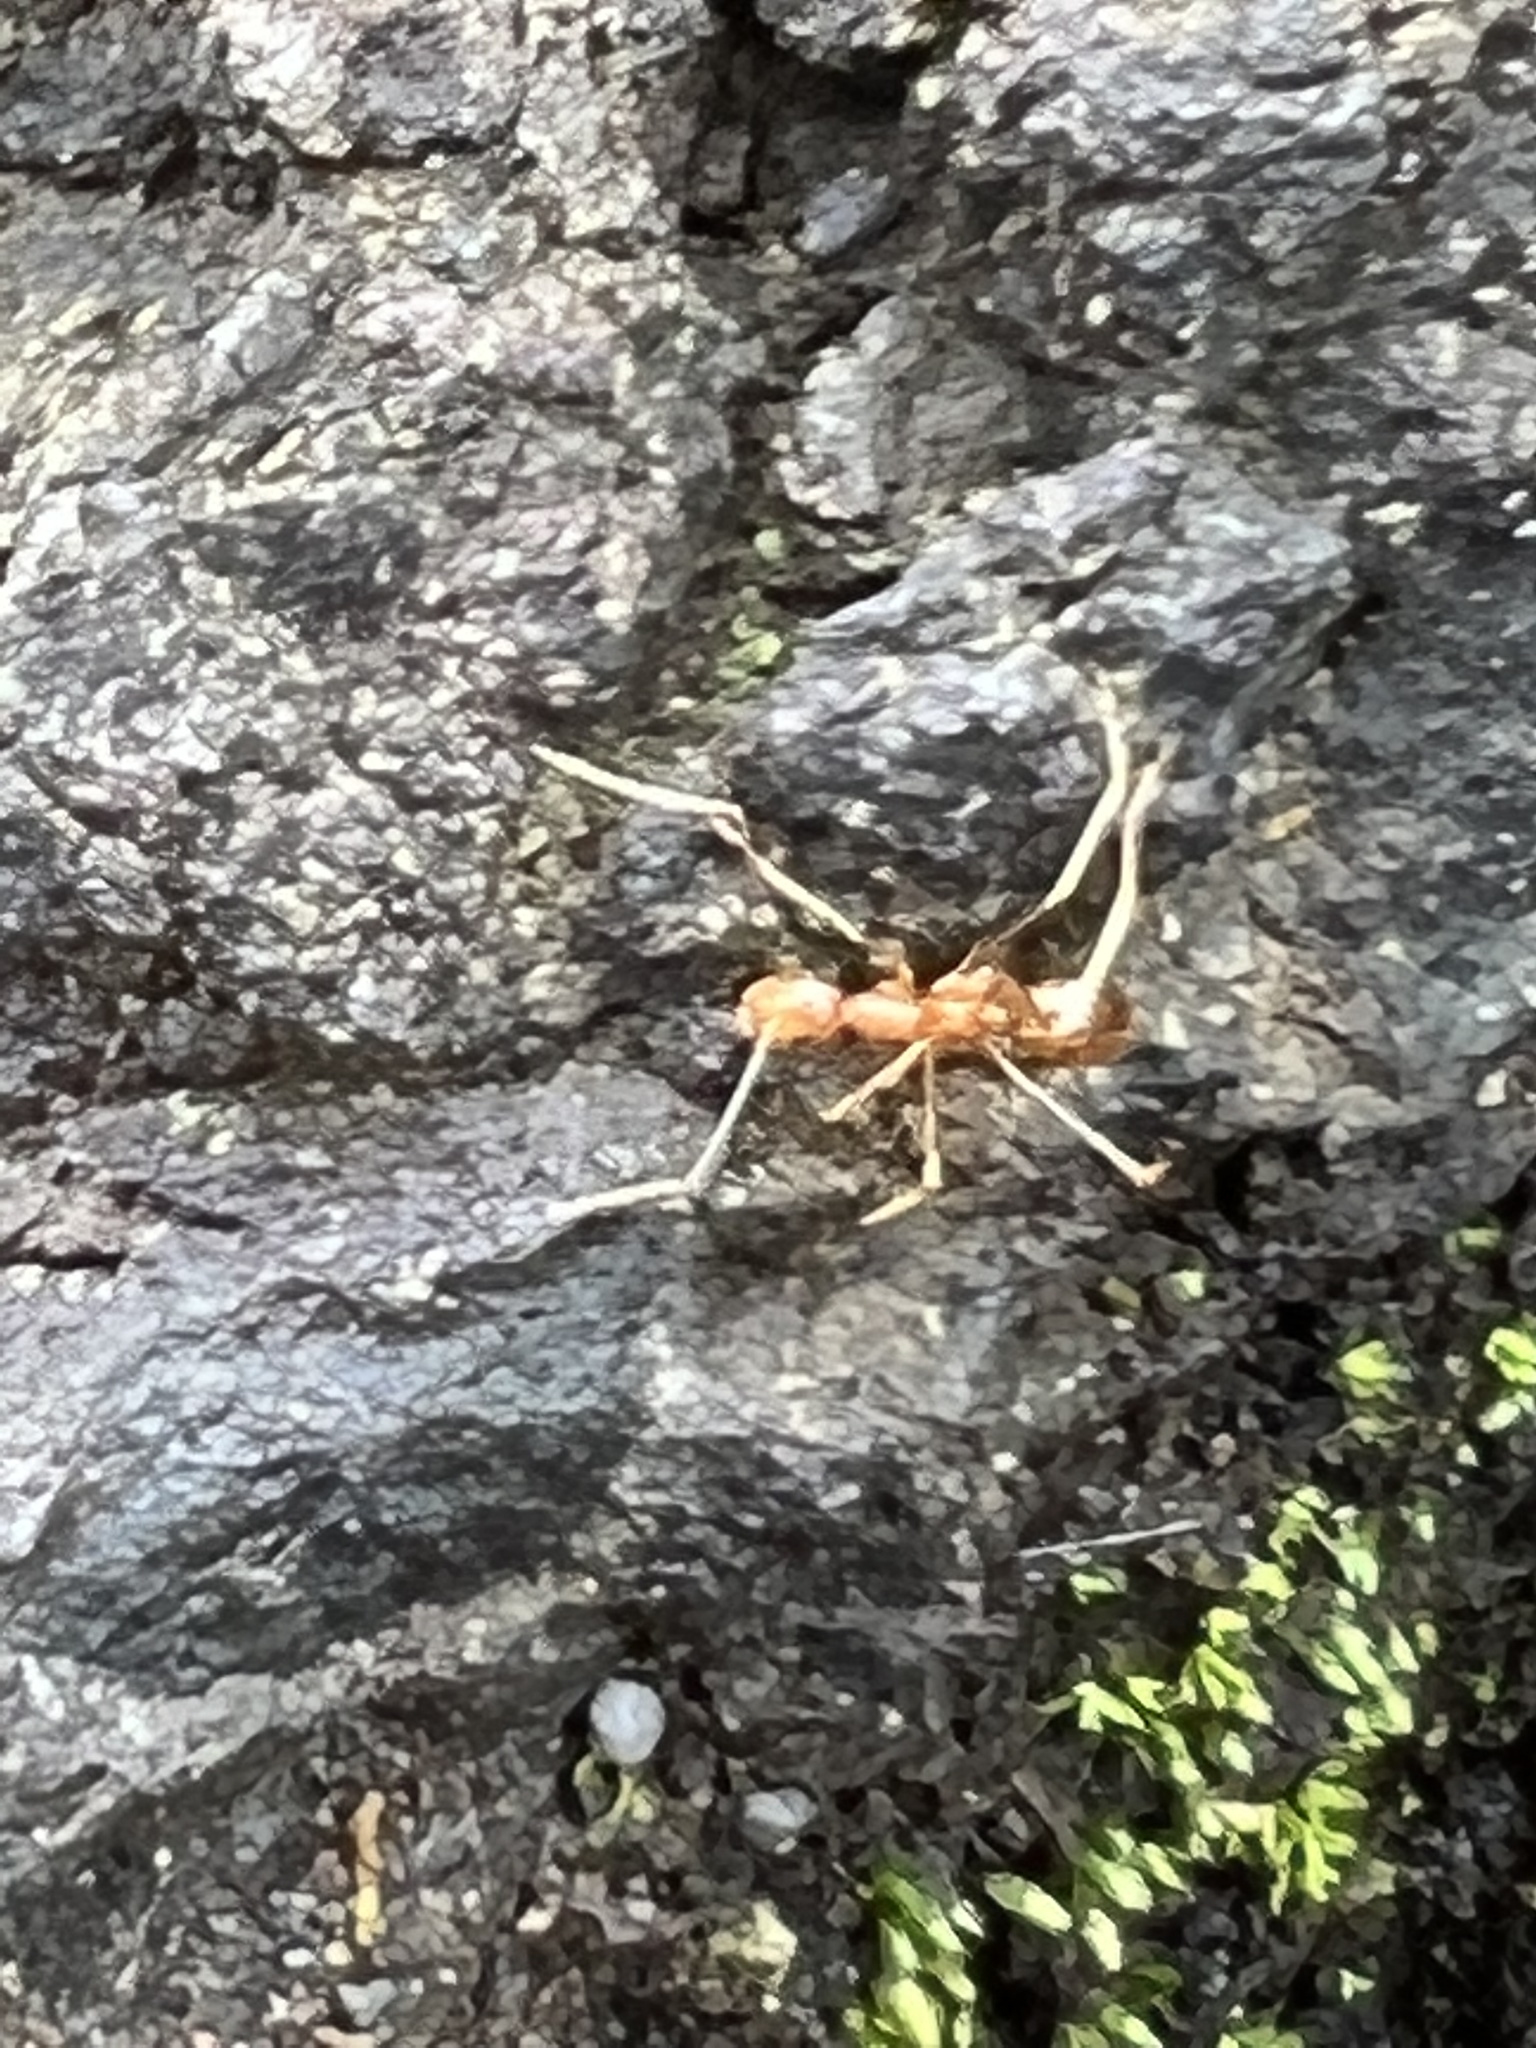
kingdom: Animalia
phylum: Arthropoda
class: Insecta
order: Hymenoptera
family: Formicidae
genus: Anoplolepis
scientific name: Anoplolepis gracilipes
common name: Ant
